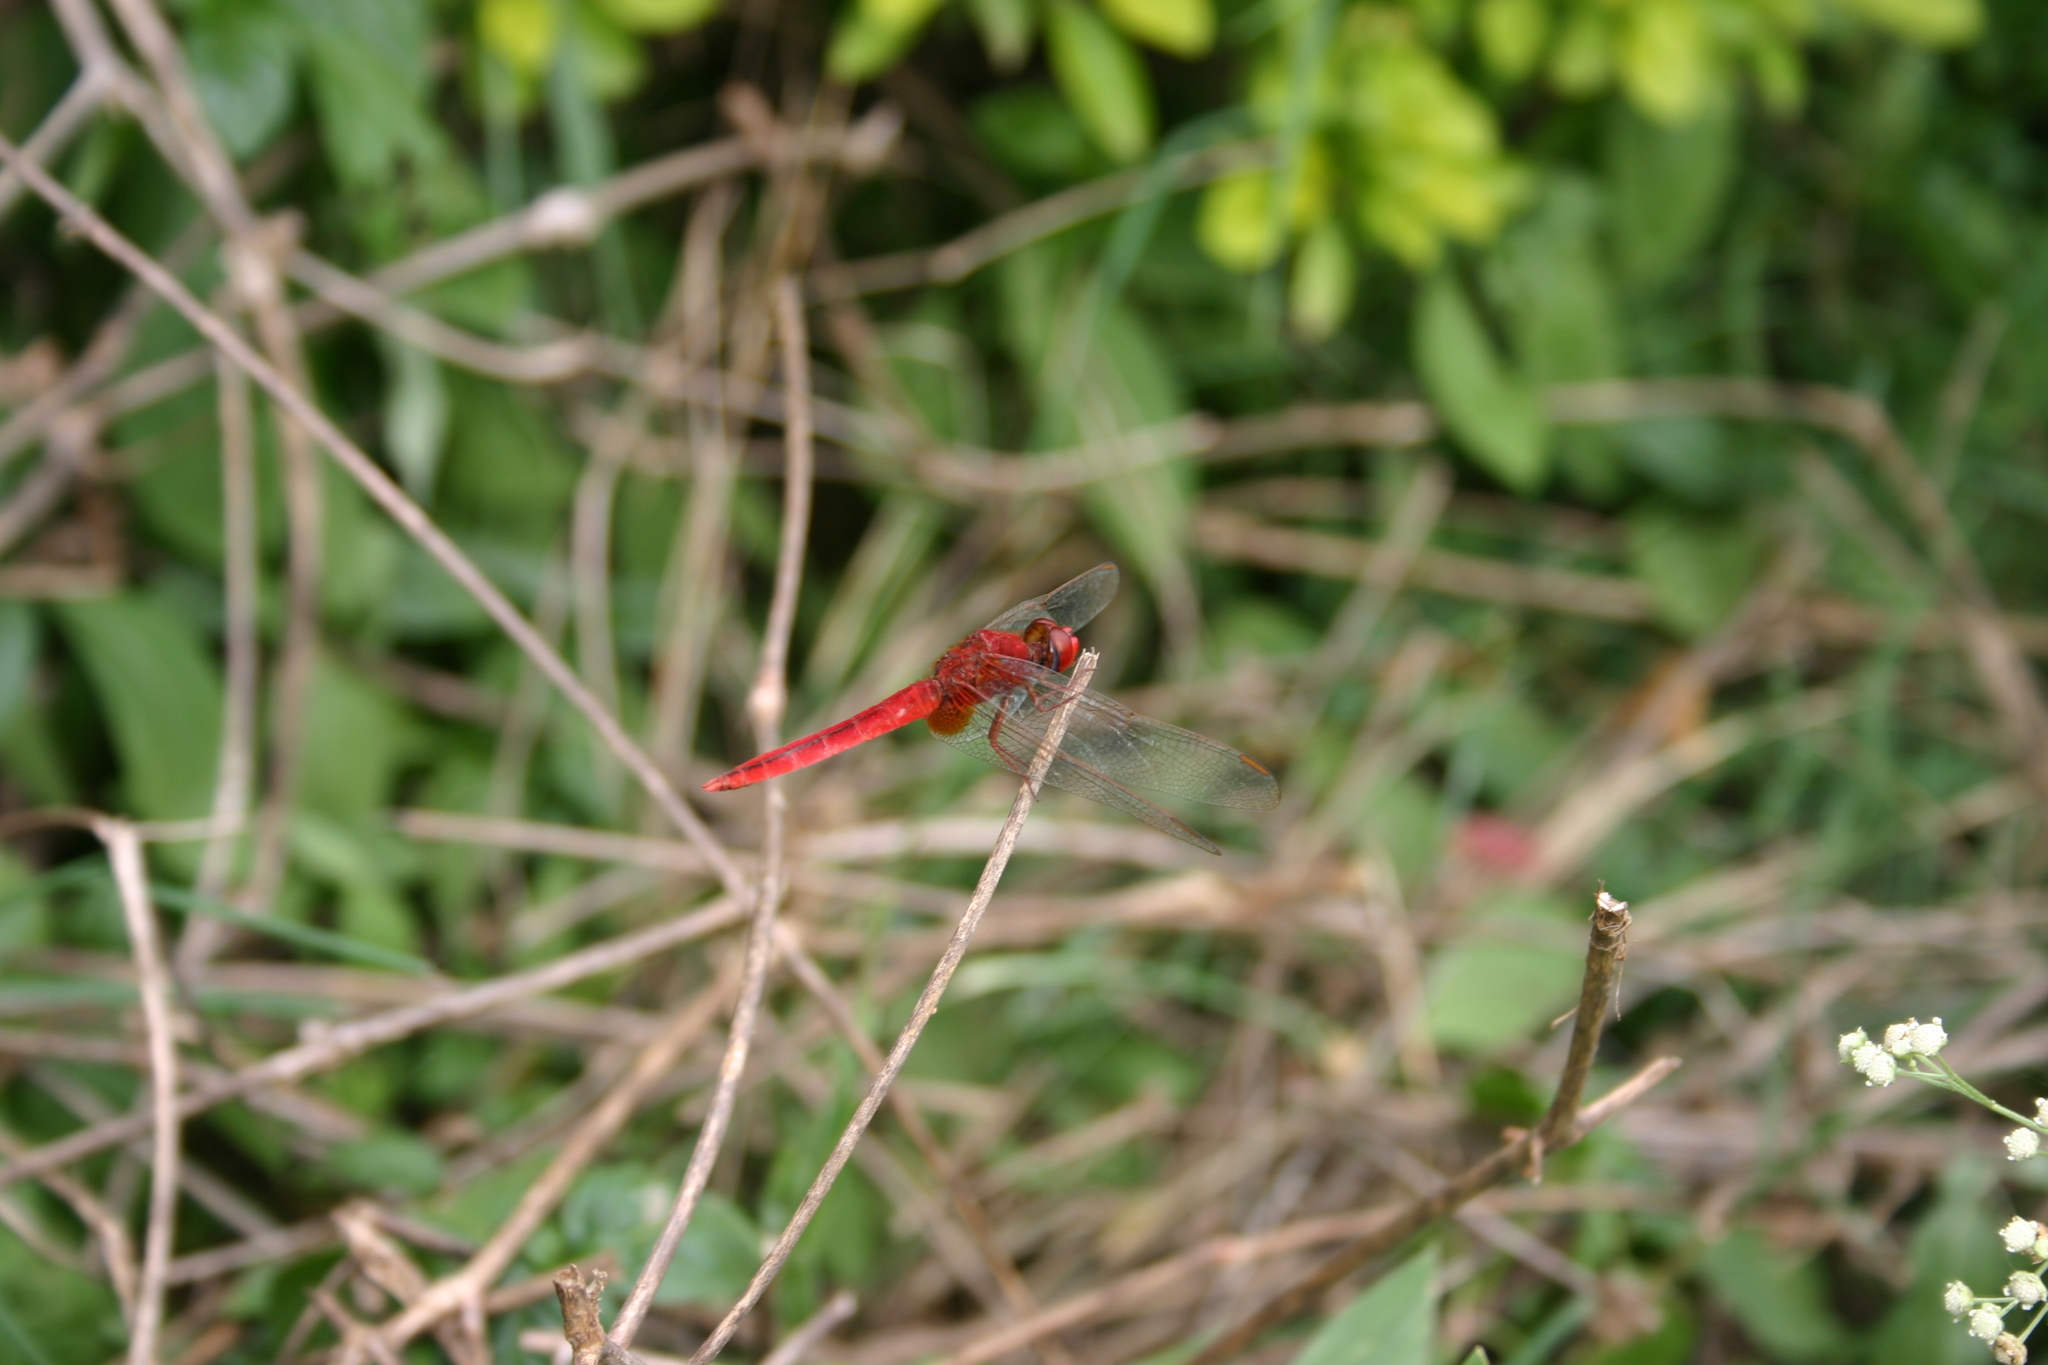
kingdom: Animalia
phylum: Arthropoda
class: Insecta
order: Odonata
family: Libellulidae
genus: Crocothemis
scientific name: Crocothemis servilia
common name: Scarlet skimmer
